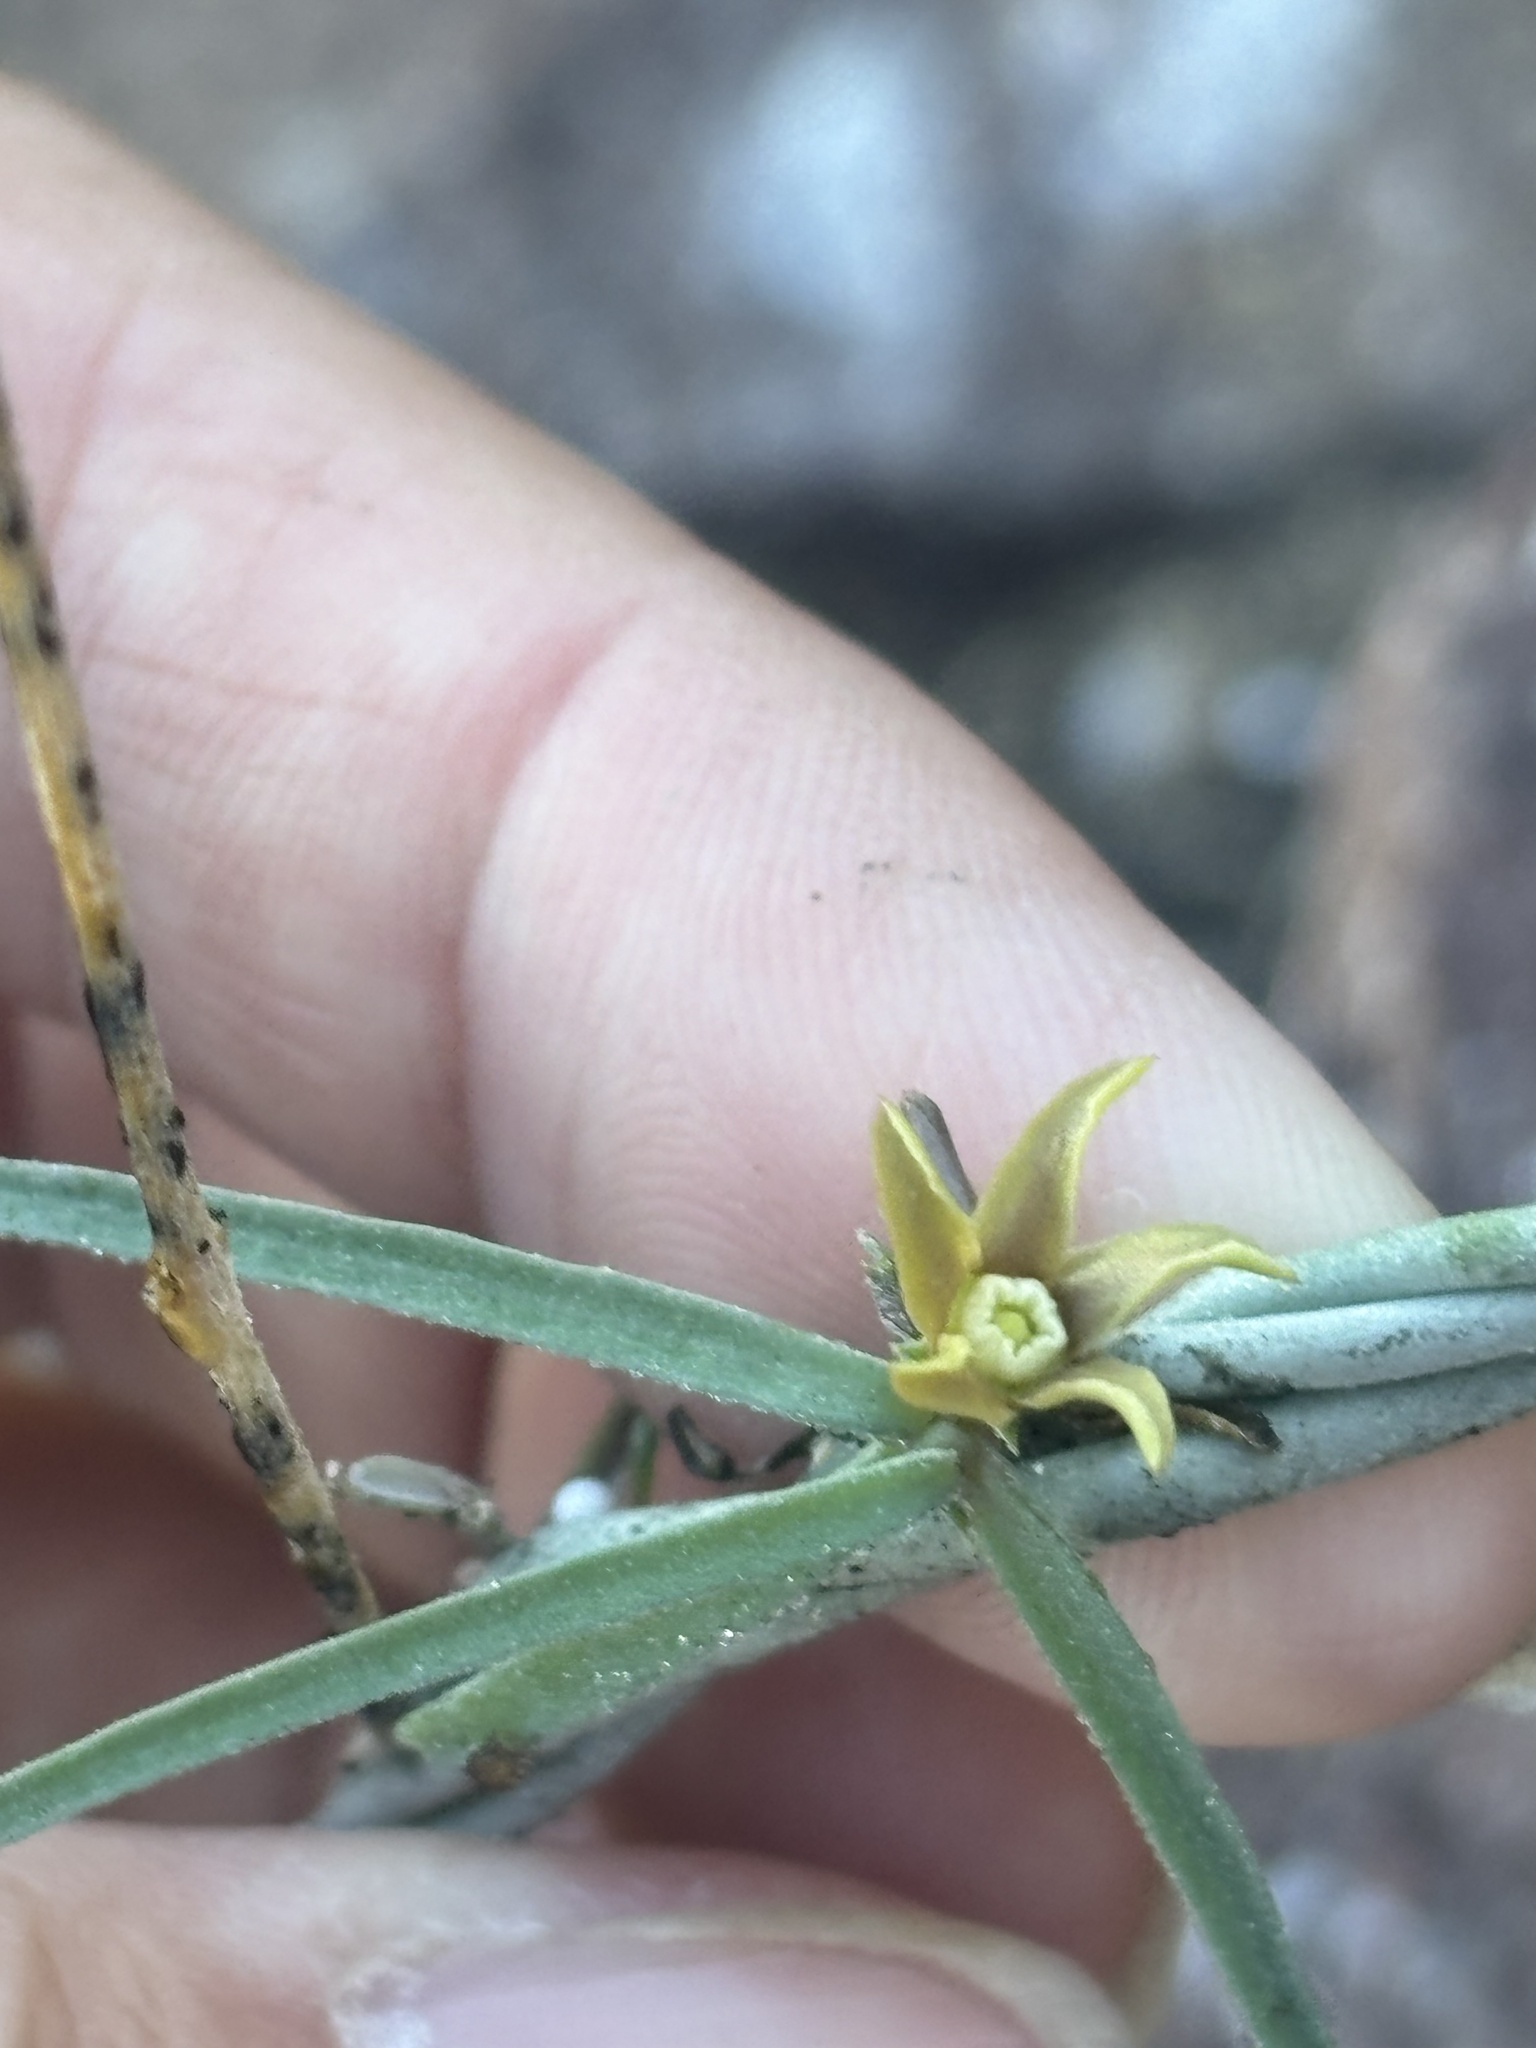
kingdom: Plantae
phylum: Tracheophyta
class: Magnoliopsida
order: Gentianales
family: Apocynaceae
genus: Pattalias
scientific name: Pattalias palmeri
